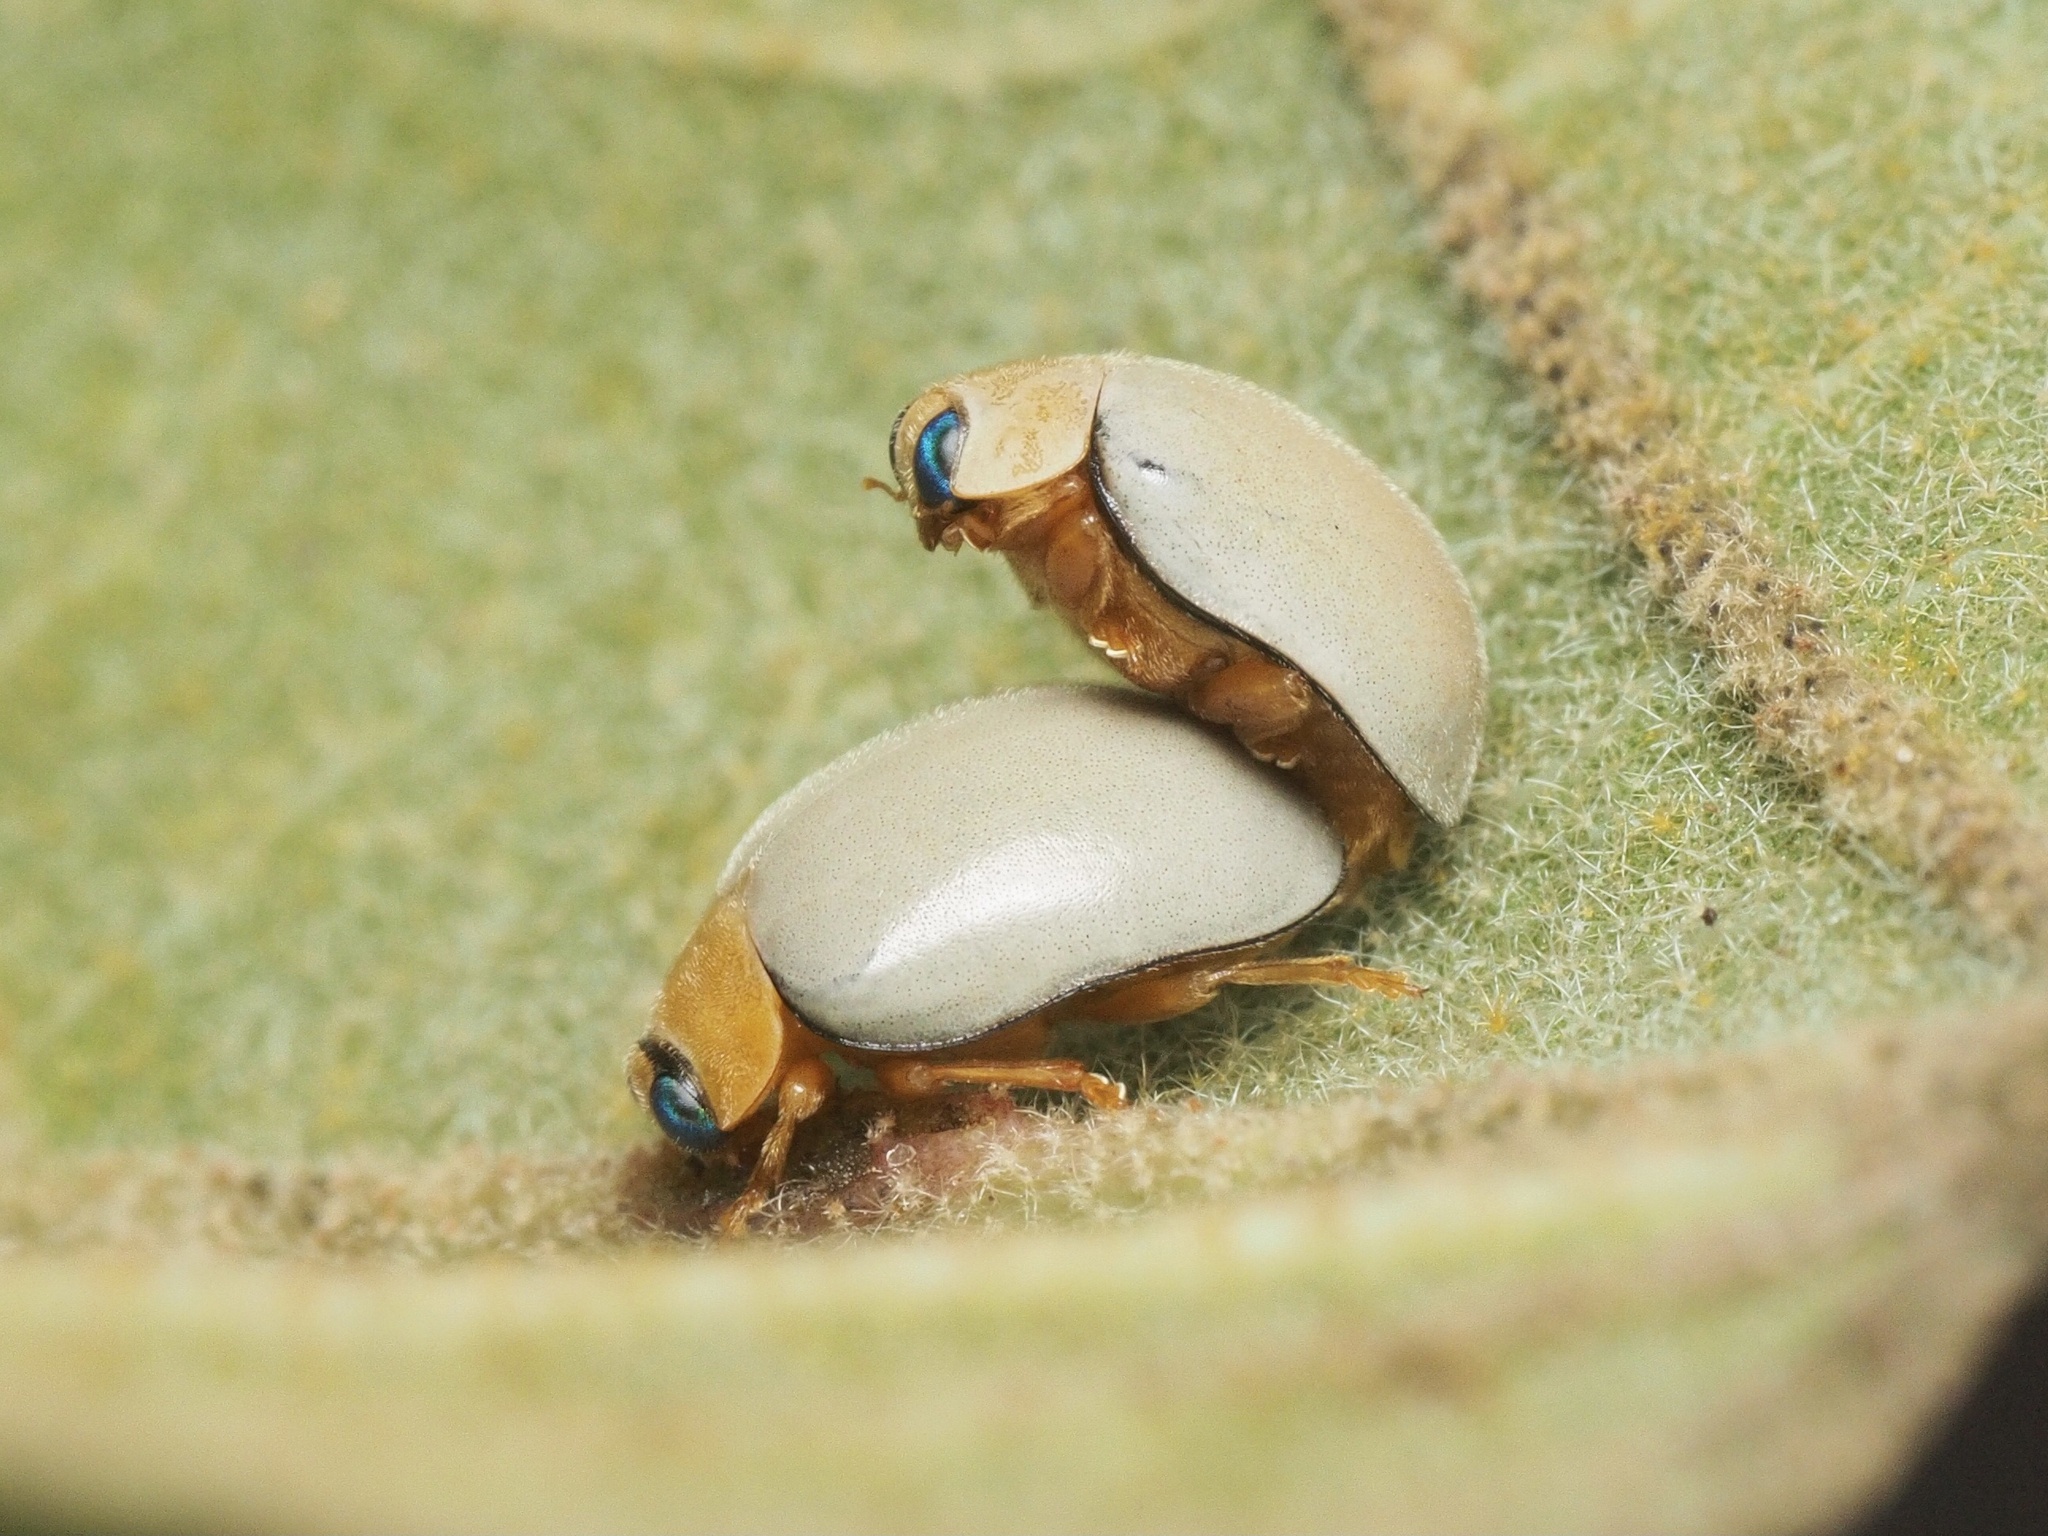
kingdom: Animalia
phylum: Arthropoda
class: Insecta
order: Coleoptera
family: Coccinellidae
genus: Ortalia
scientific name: Ortalia
